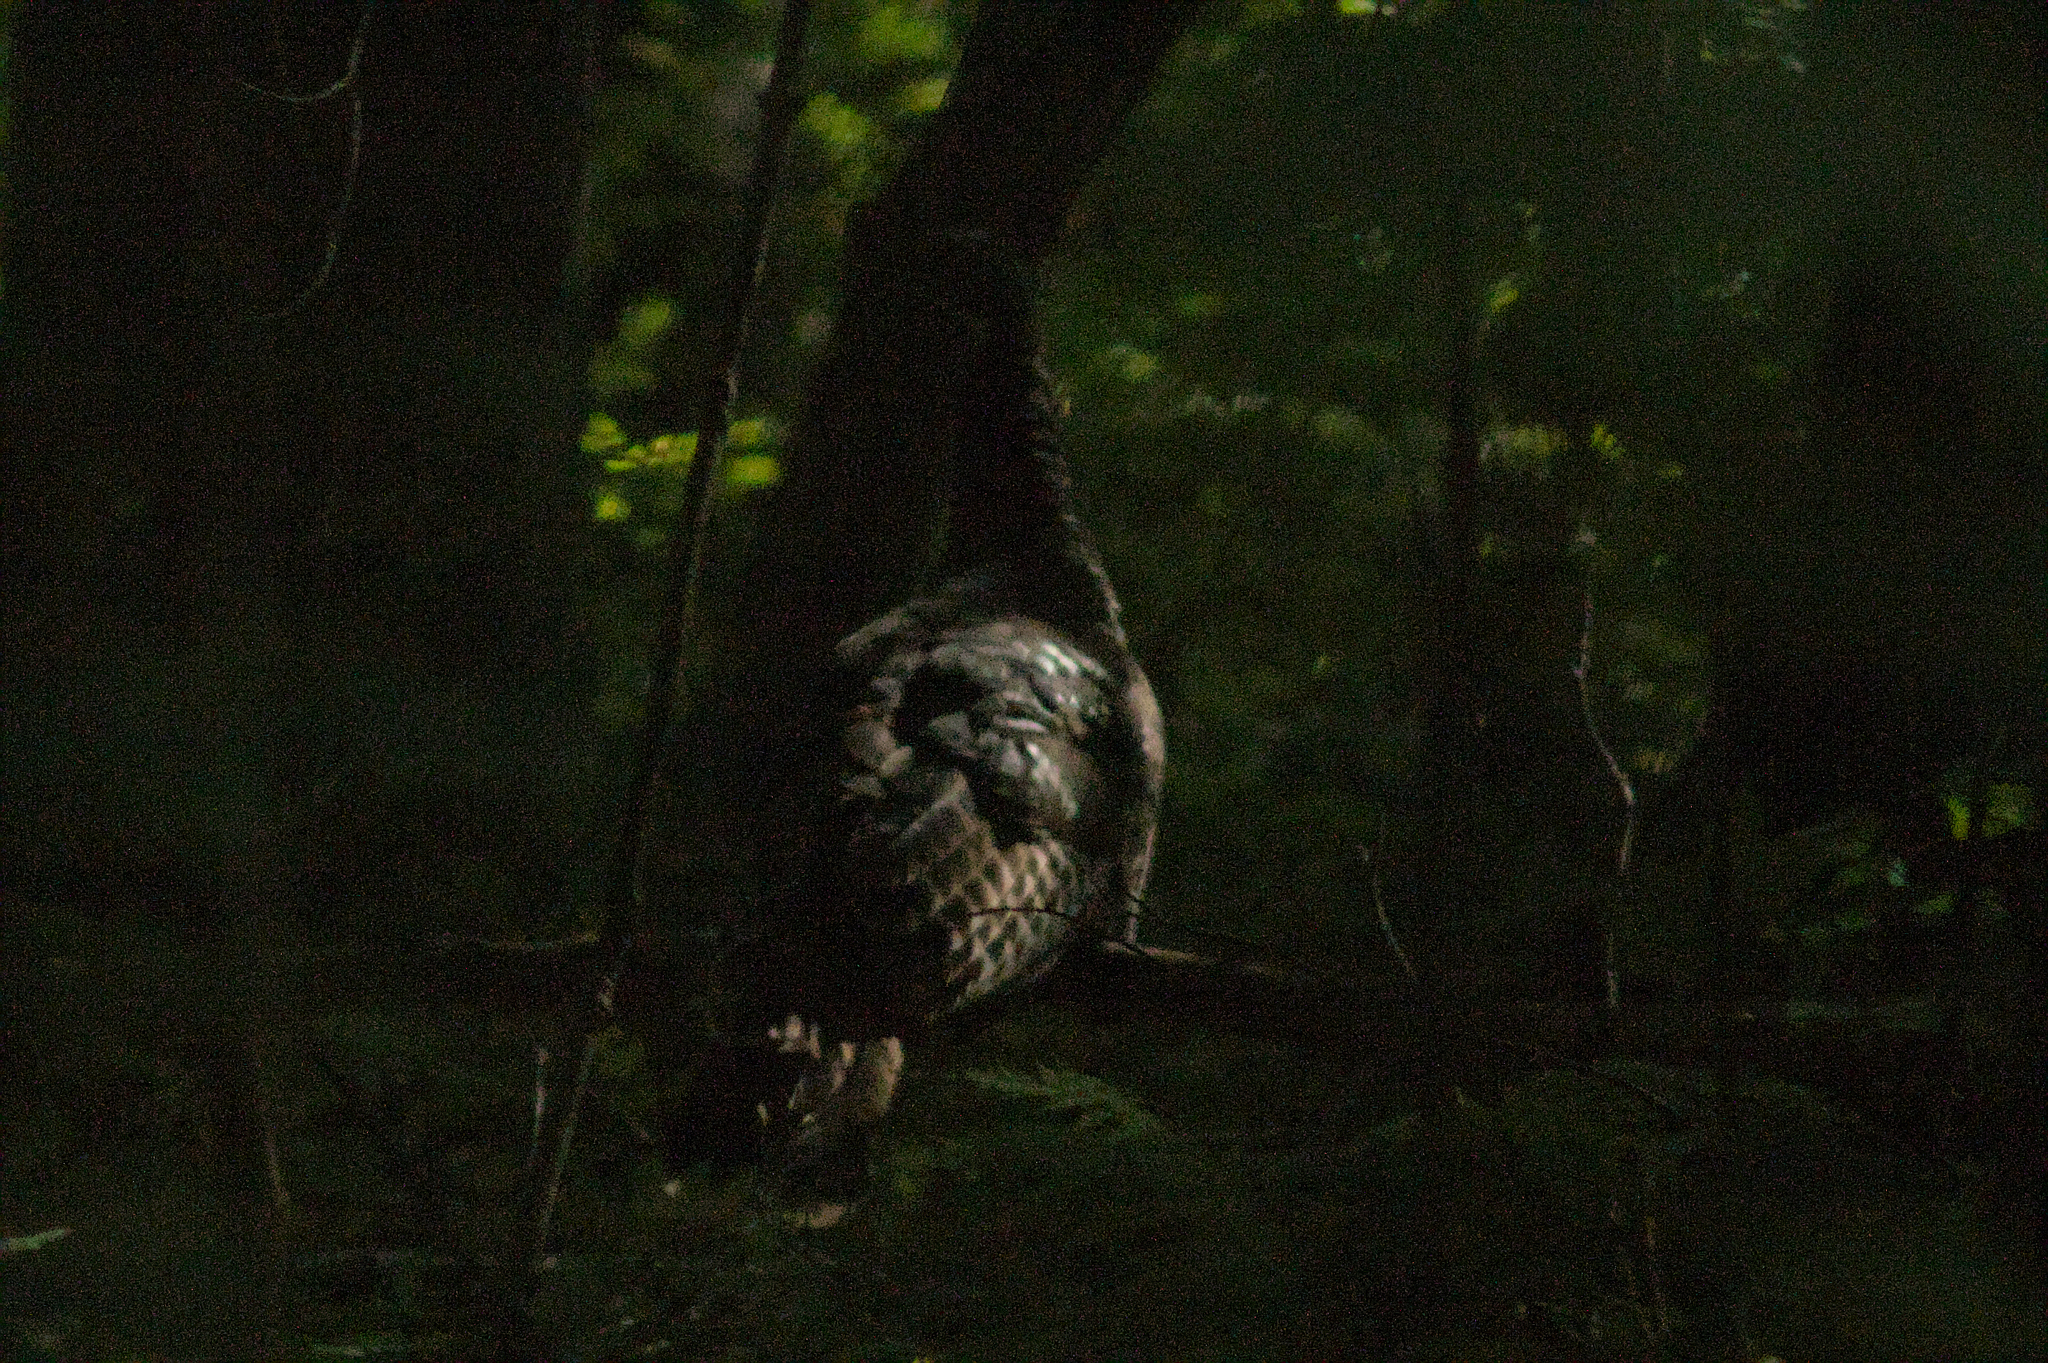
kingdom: Animalia
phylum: Chordata
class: Aves
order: Galliformes
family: Phasianidae
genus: Meleagris
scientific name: Meleagris gallopavo
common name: Wild turkey
